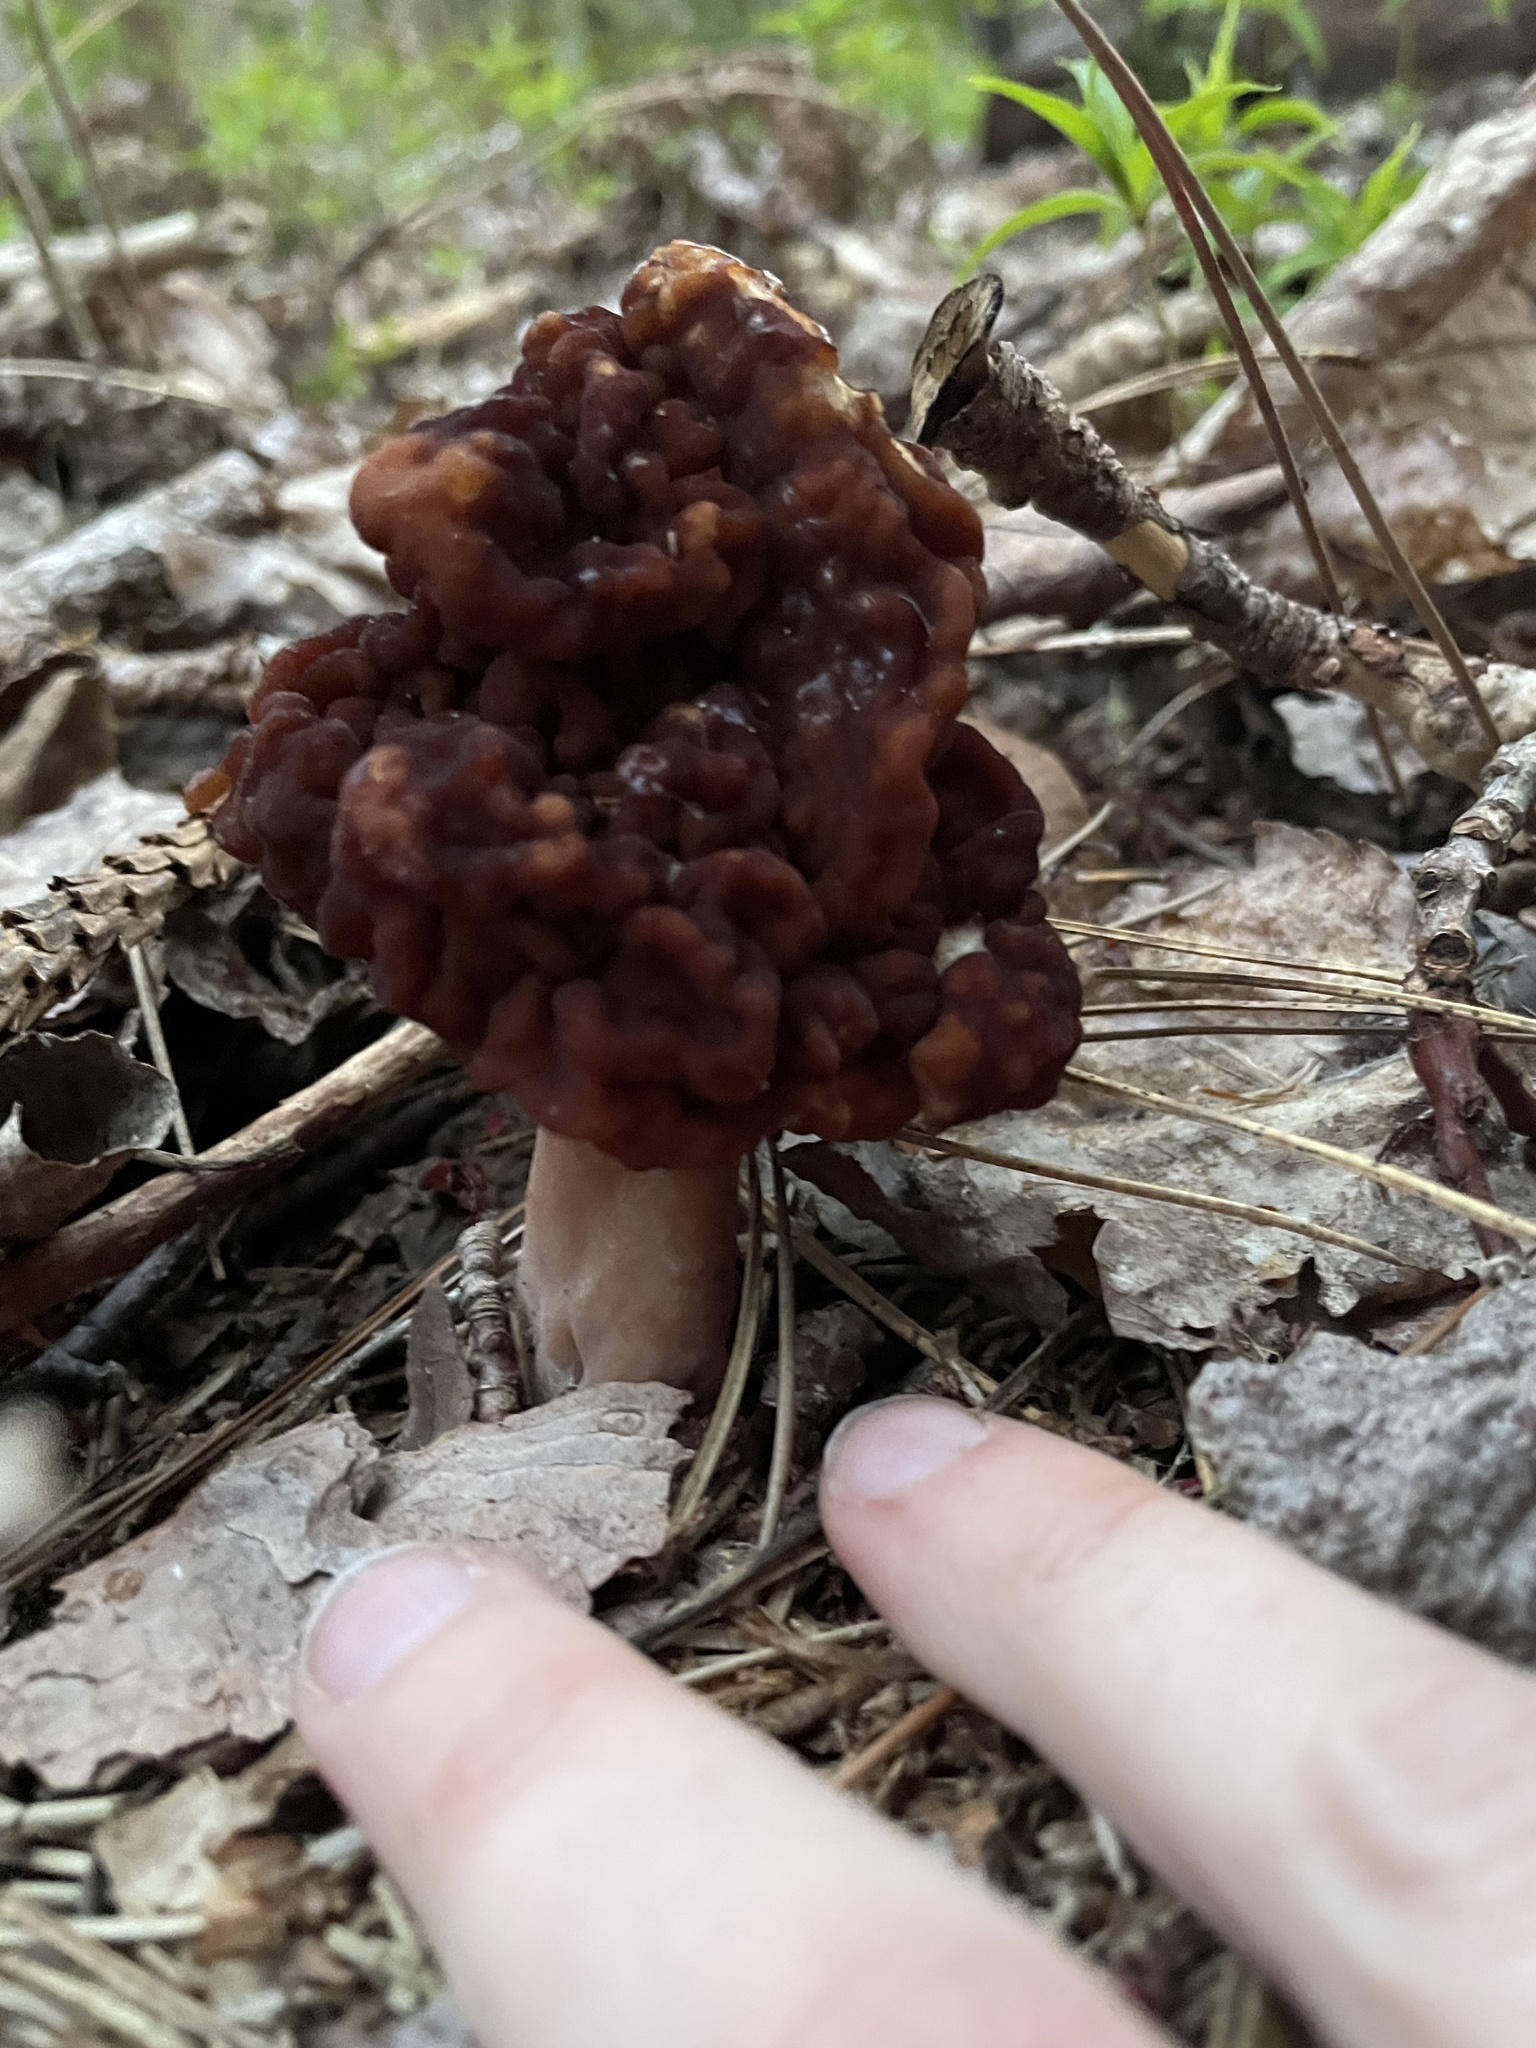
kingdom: Fungi
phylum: Ascomycota
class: Pezizomycetes
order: Pezizales
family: Discinaceae
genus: Gyromitra
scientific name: Gyromitra esculenta
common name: False morel
